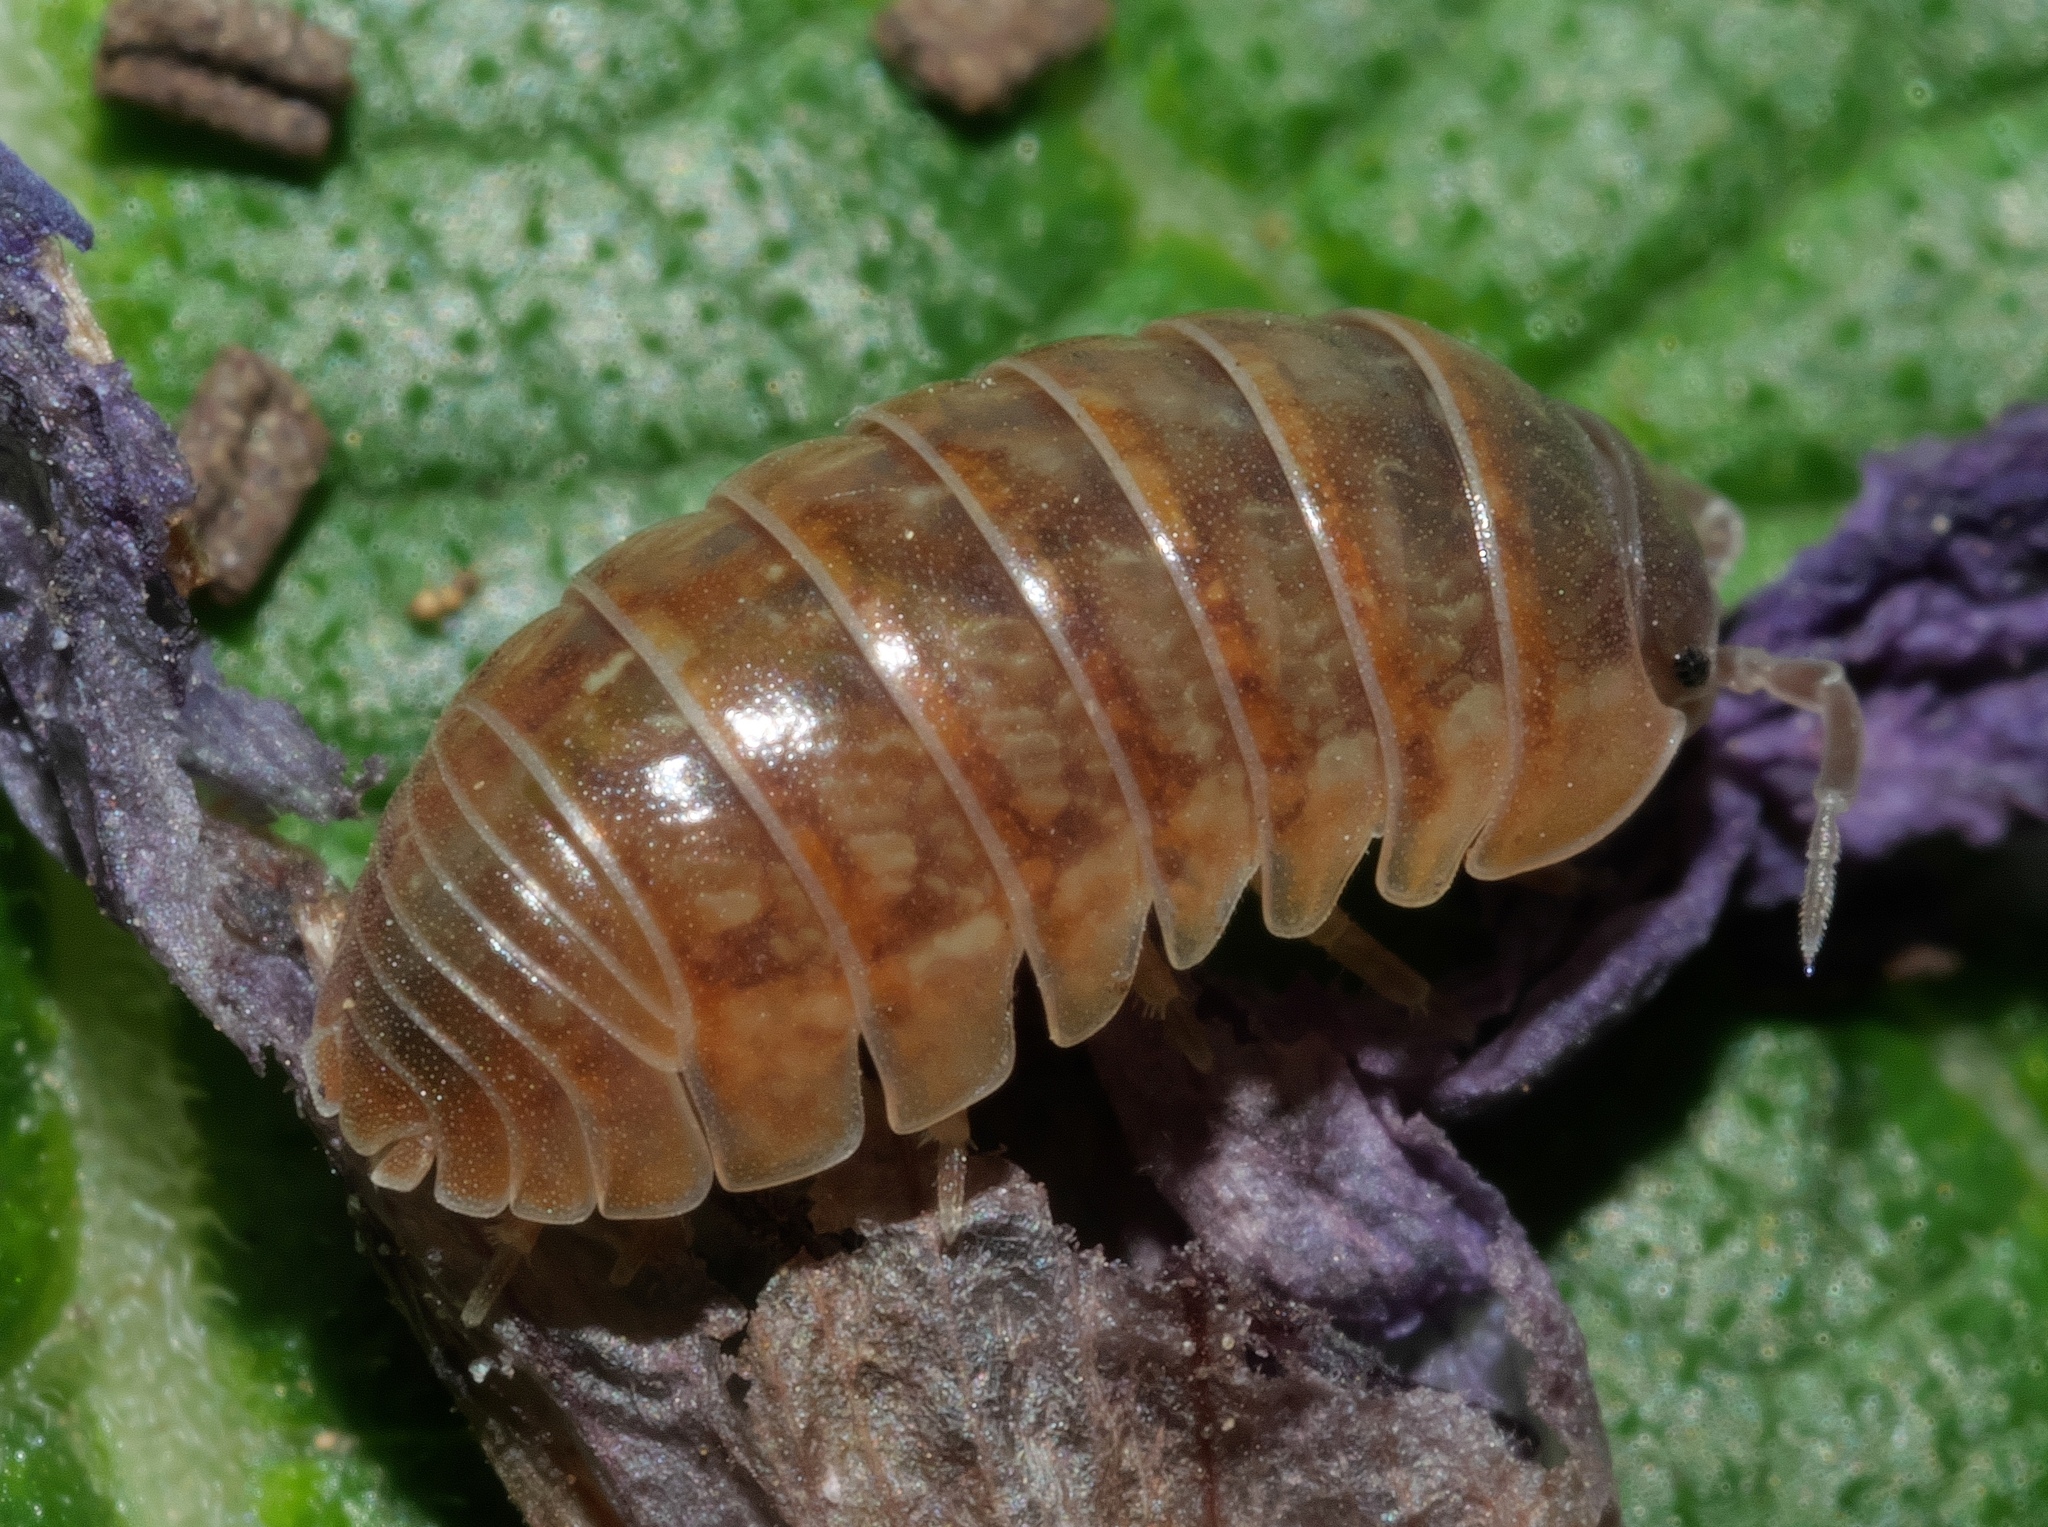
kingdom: Animalia
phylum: Arthropoda
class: Malacostraca
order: Isopoda
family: Armadillidiidae
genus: Armadillidium
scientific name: Armadillidium vulgare
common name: Common pill woodlouse
